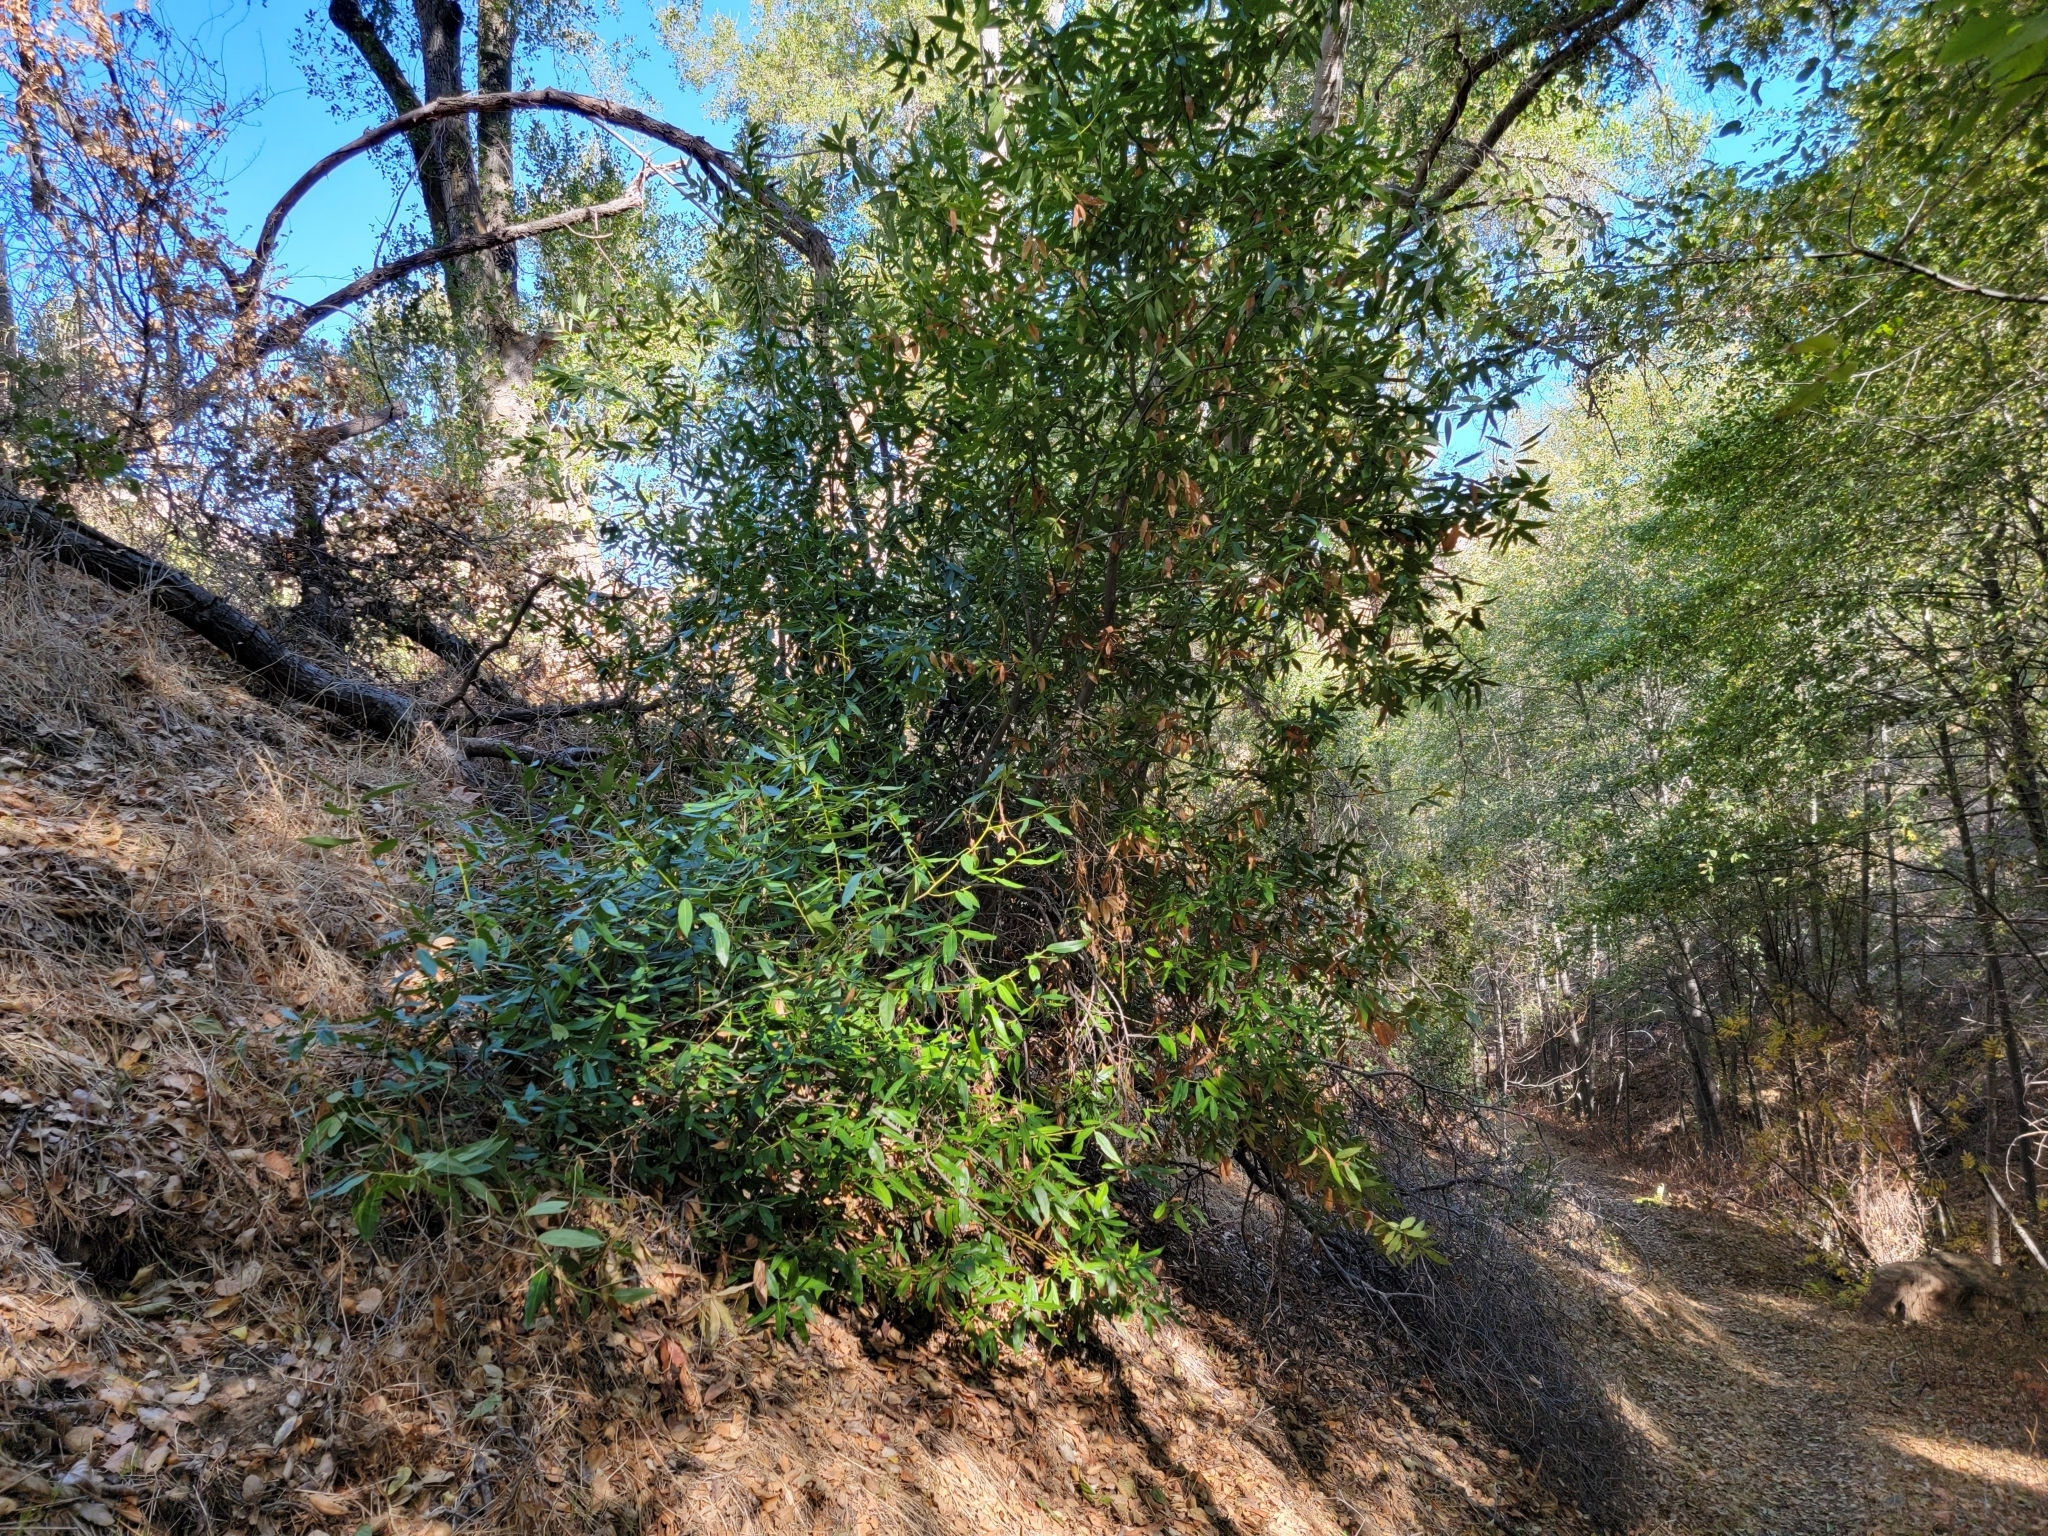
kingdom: Plantae
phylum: Tracheophyta
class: Magnoliopsida
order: Laurales
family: Lauraceae
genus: Umbellularia
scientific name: Umbellularia californica
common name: California bay
